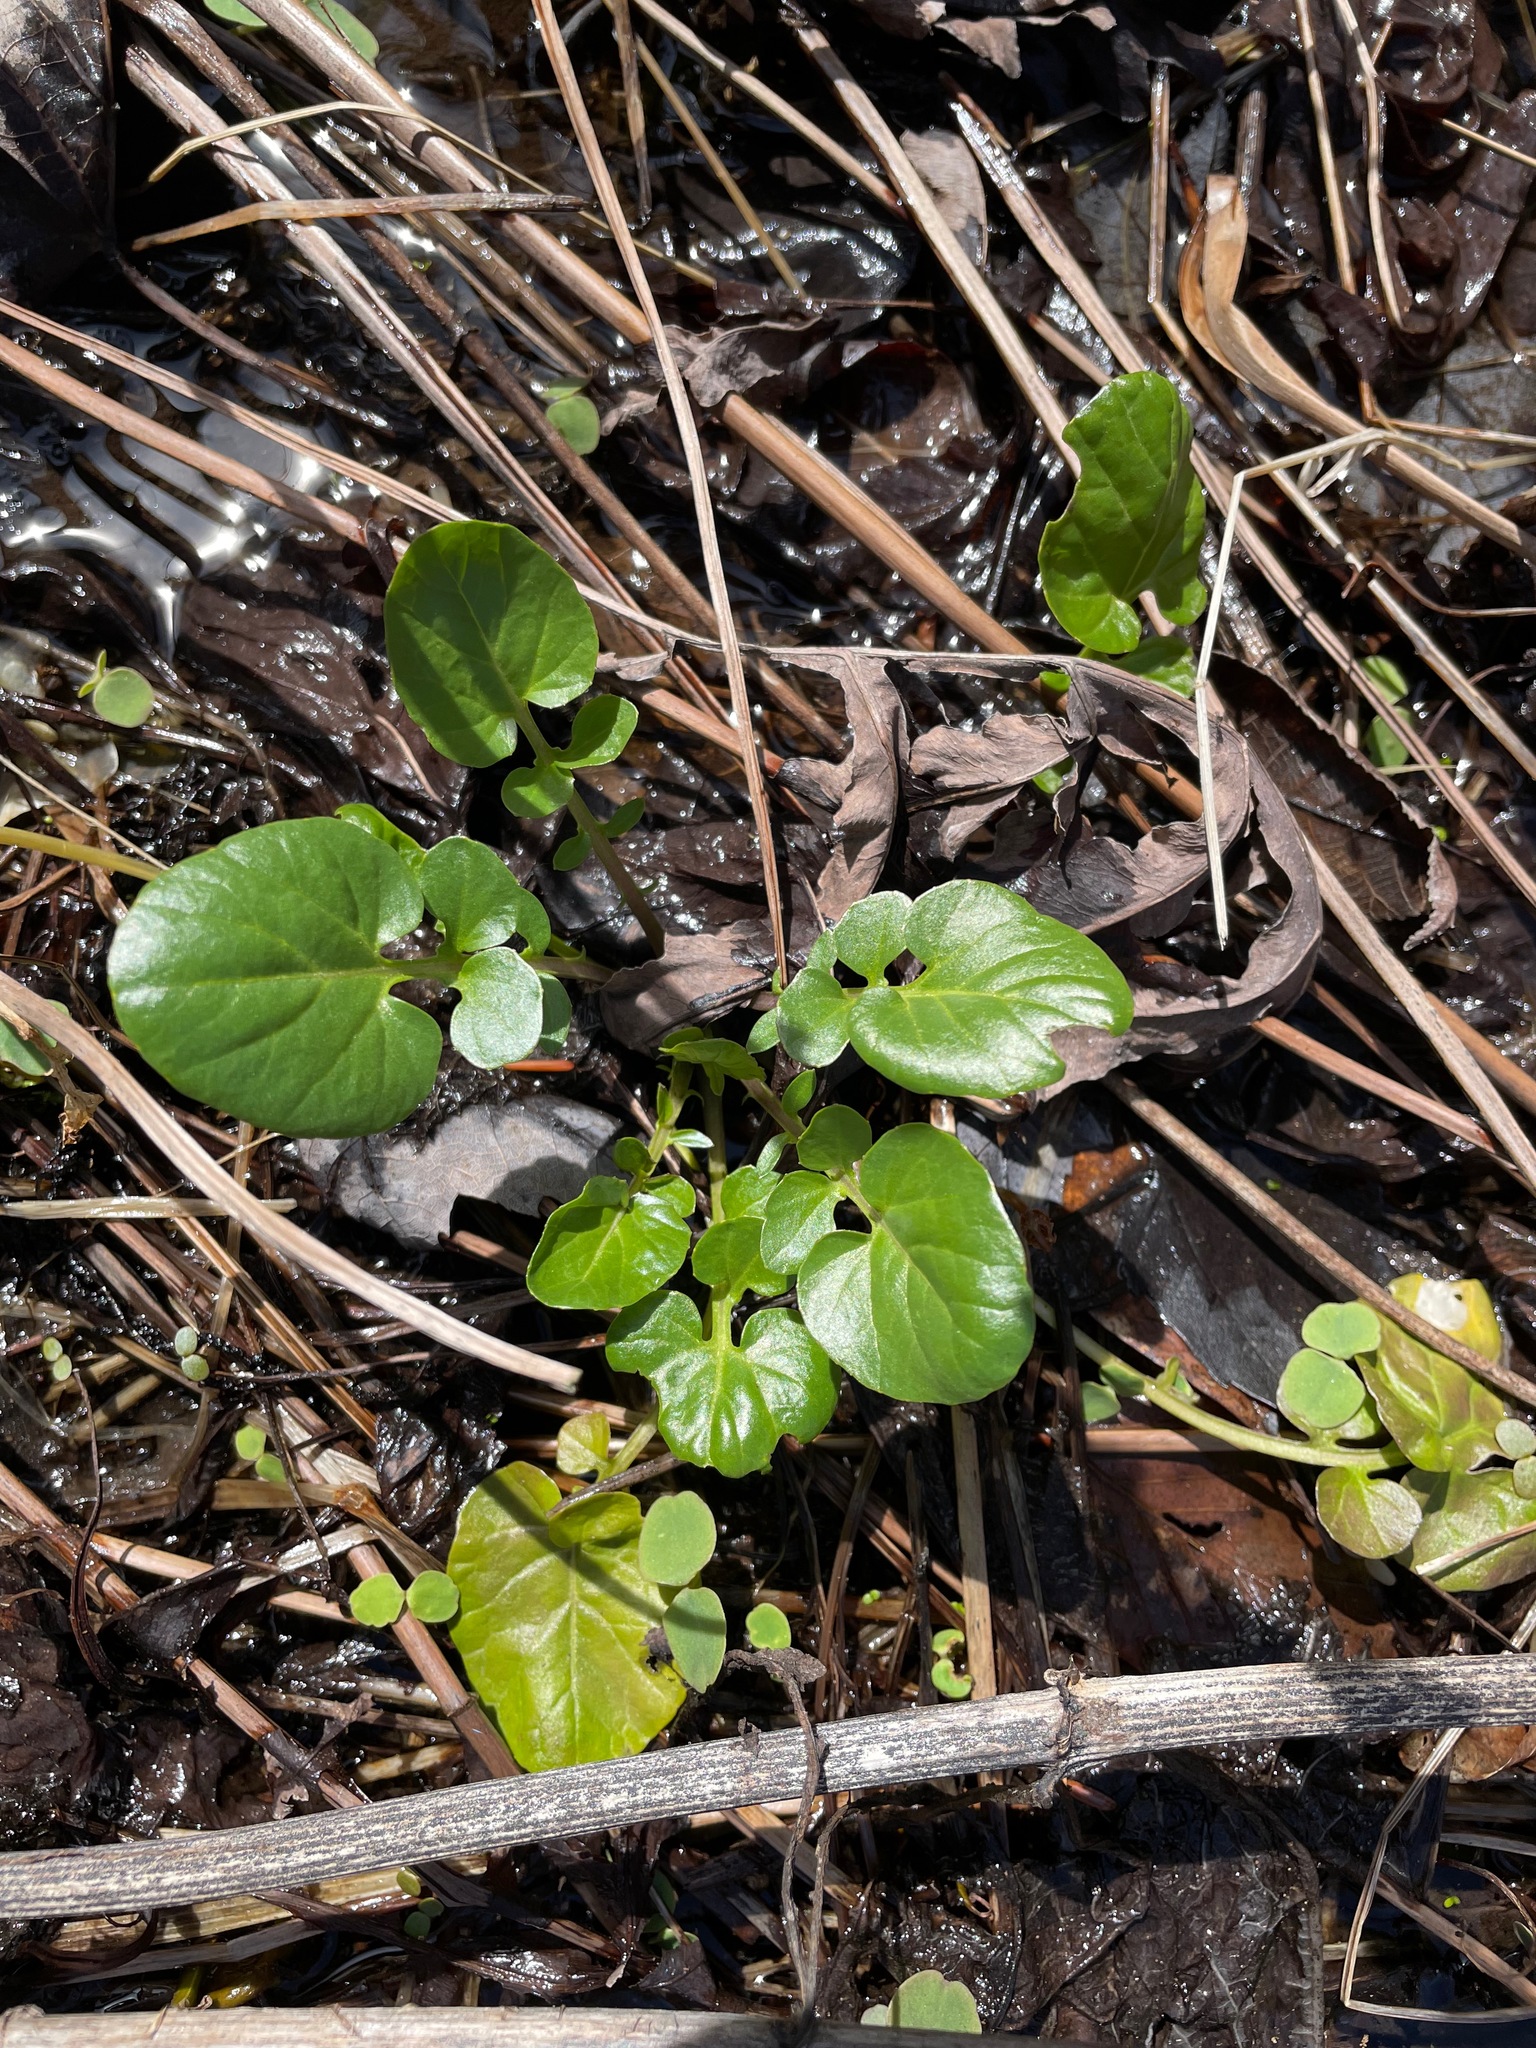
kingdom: Plantae
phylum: Tracheophyta
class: Magnoliopsida
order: Brassicales
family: Brassicaceae
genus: Barbarea
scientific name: Barbarea vulgaris
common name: Cressy-greens
